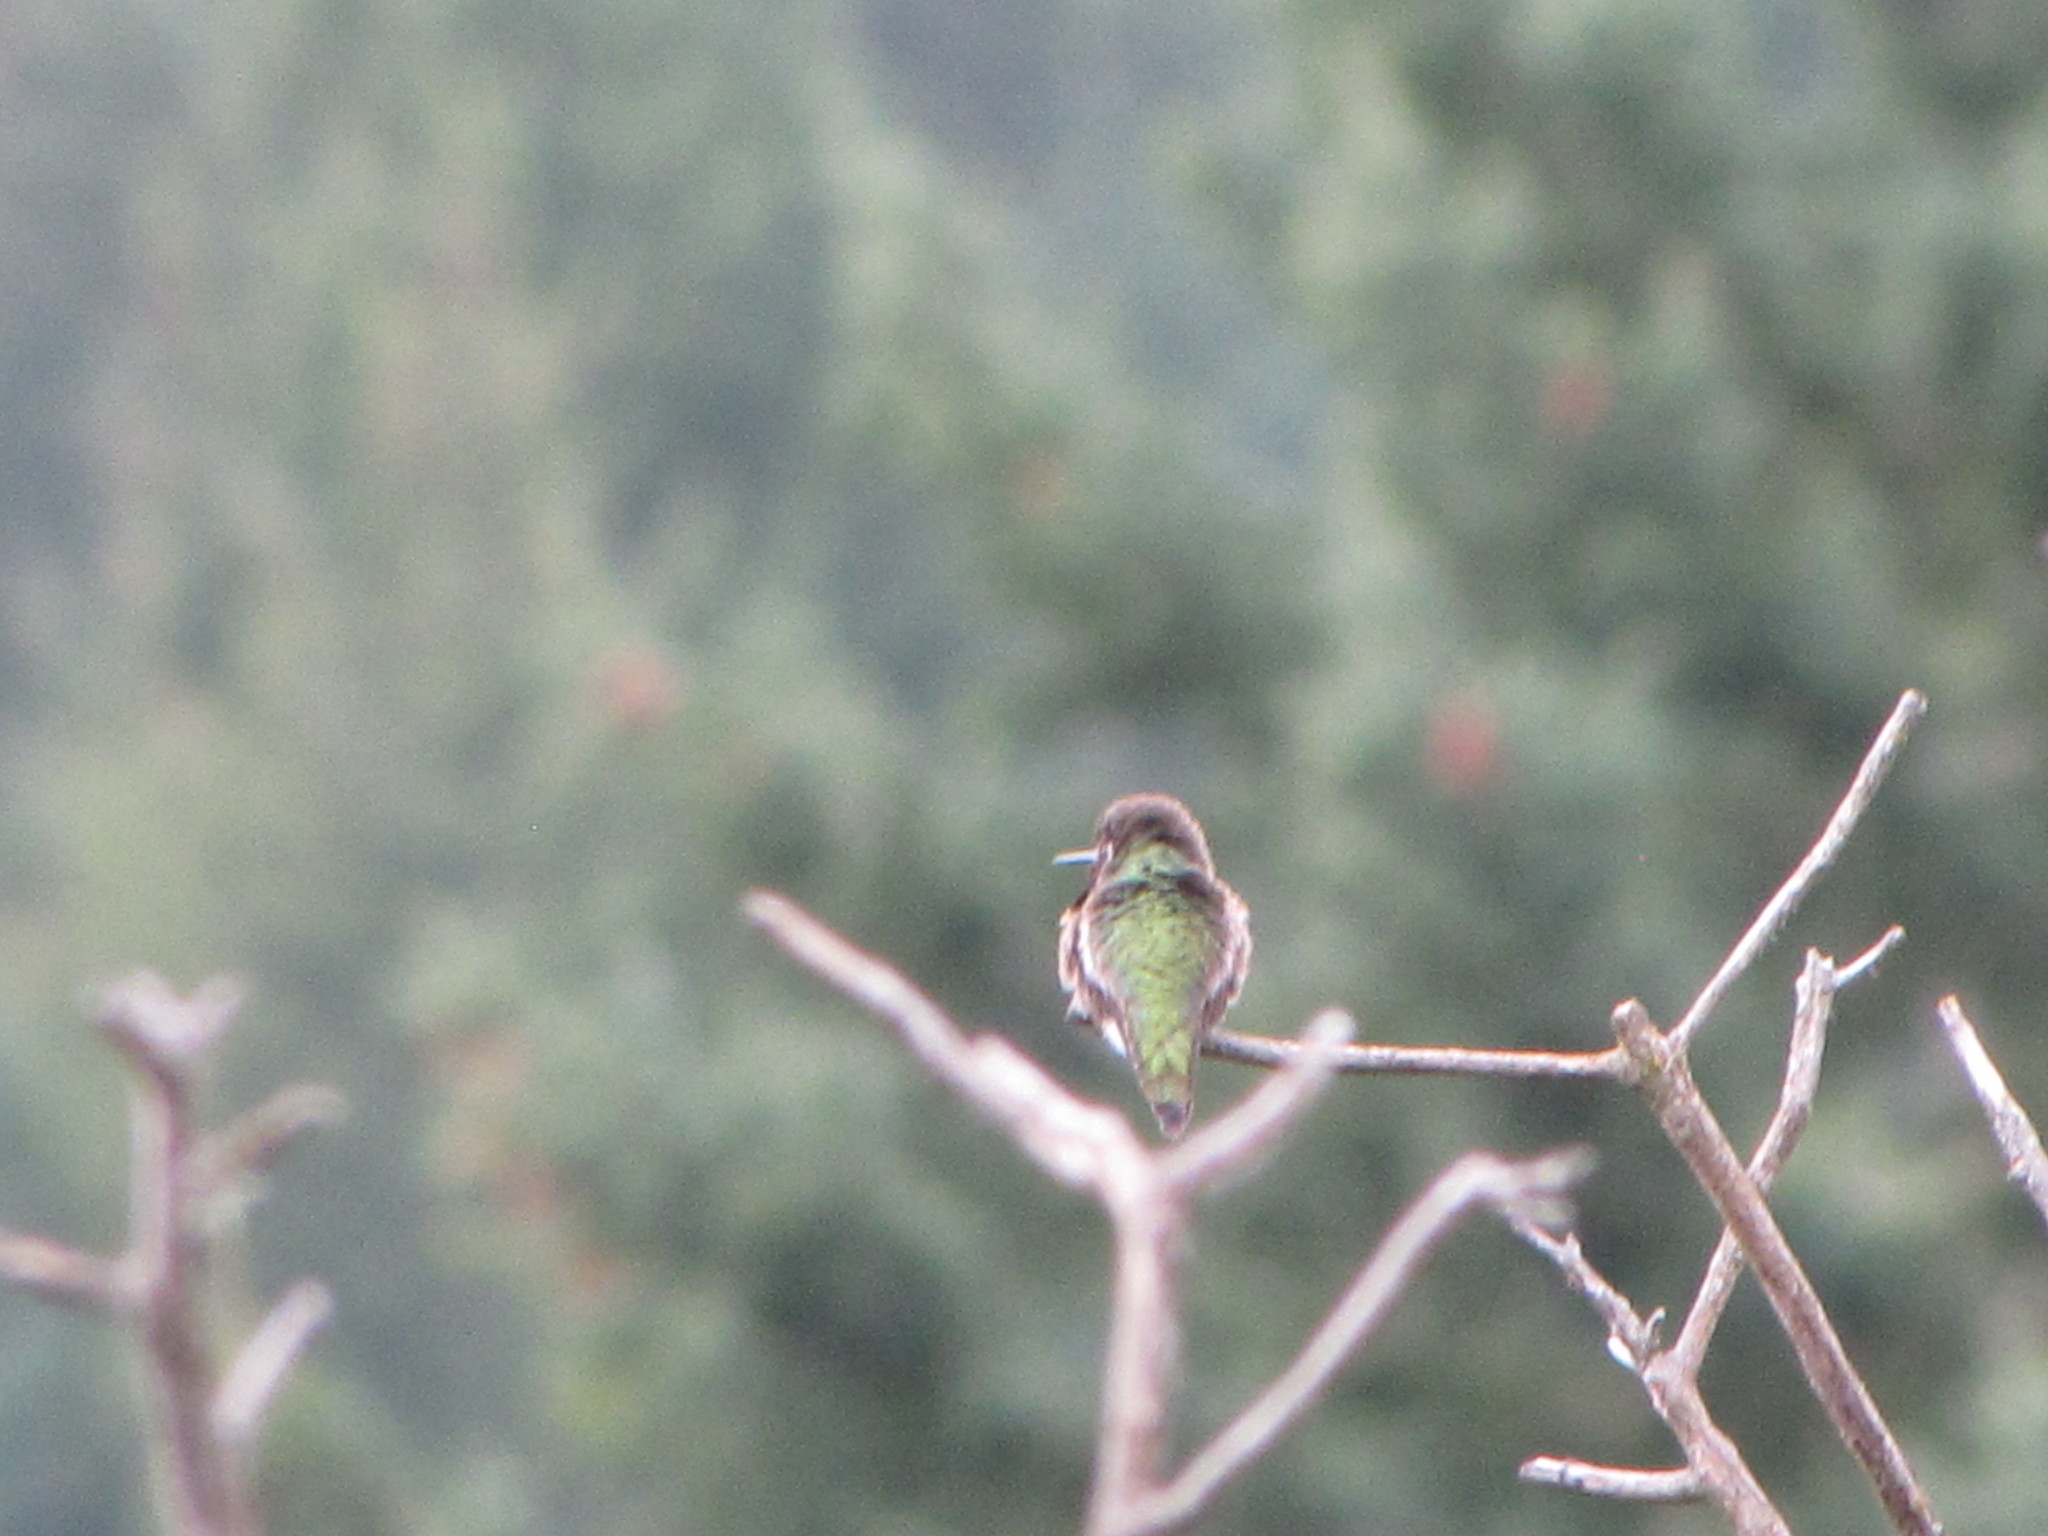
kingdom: Animalia
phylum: Chordata
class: Aves
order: Apodiformes
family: Trochilidae
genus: Calypte
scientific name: Calypte anna
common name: Anna's hummingbird
